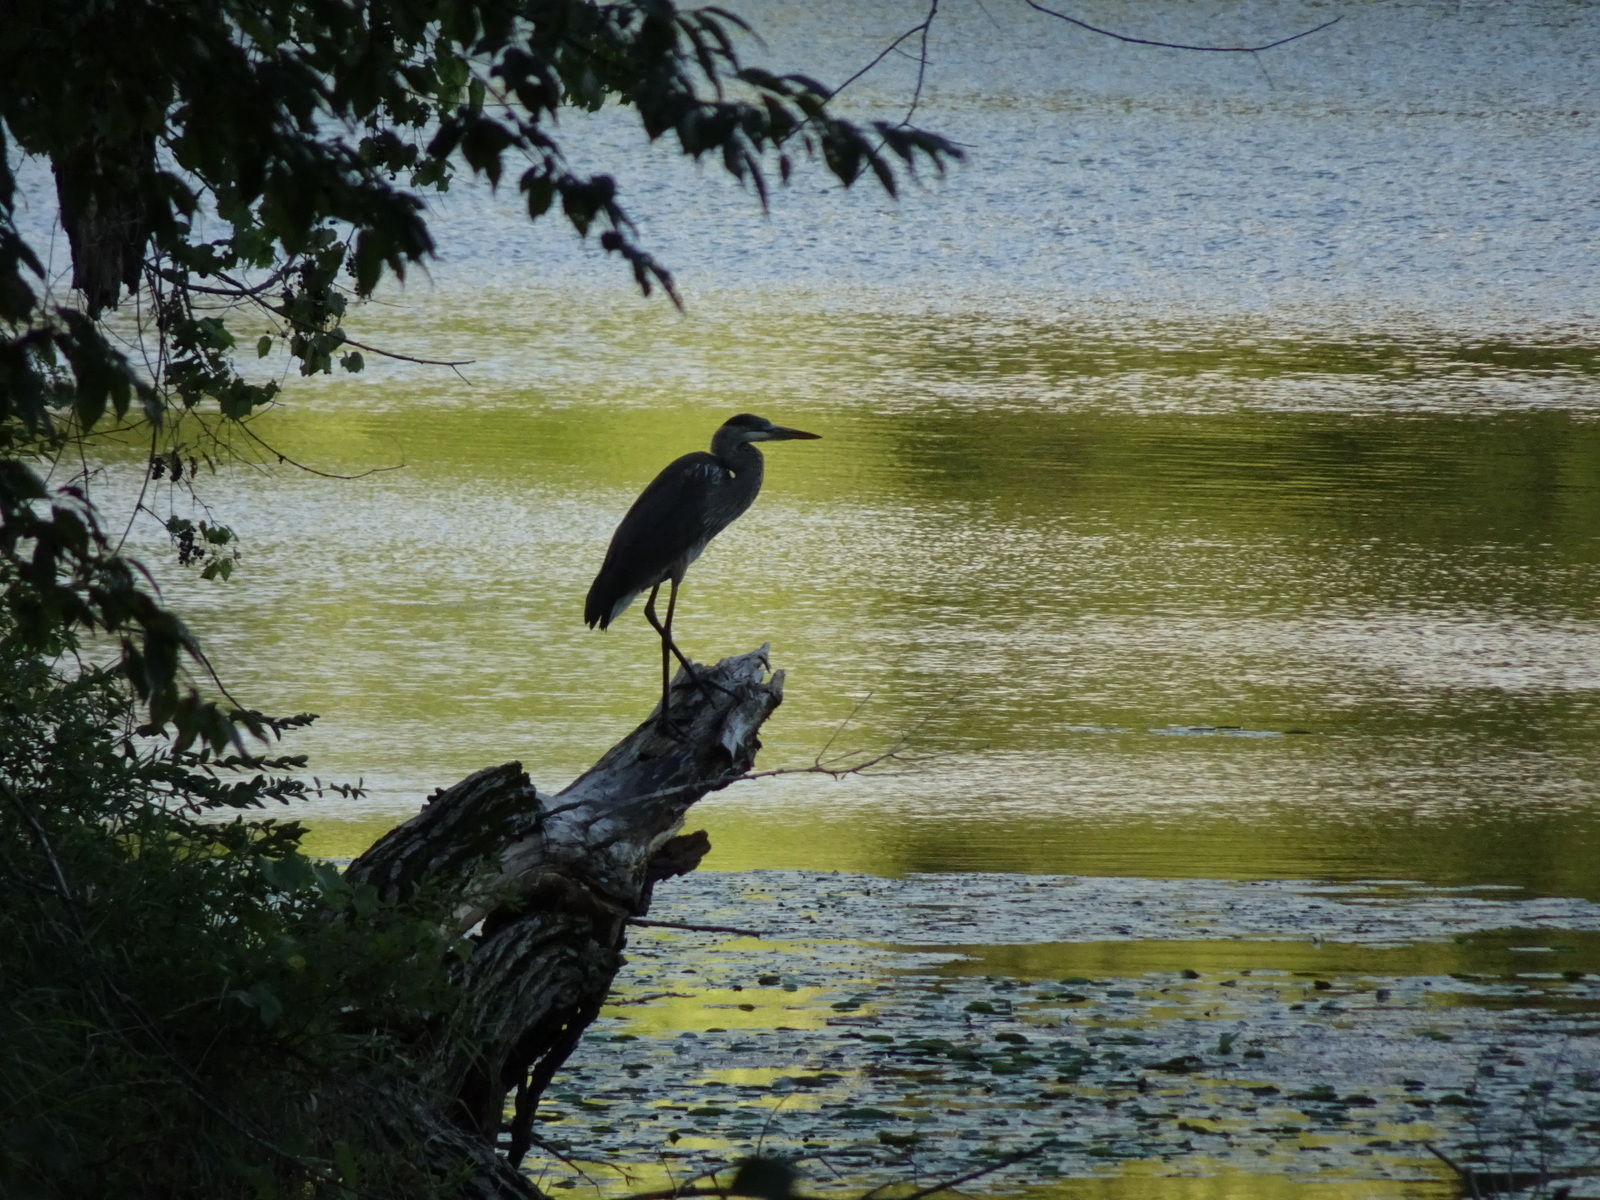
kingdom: Animalia
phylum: Chordata
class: Aves
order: Pelecaniformes
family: Ardeidae
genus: Ardea
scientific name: Ardea herodias
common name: Great blue heron
